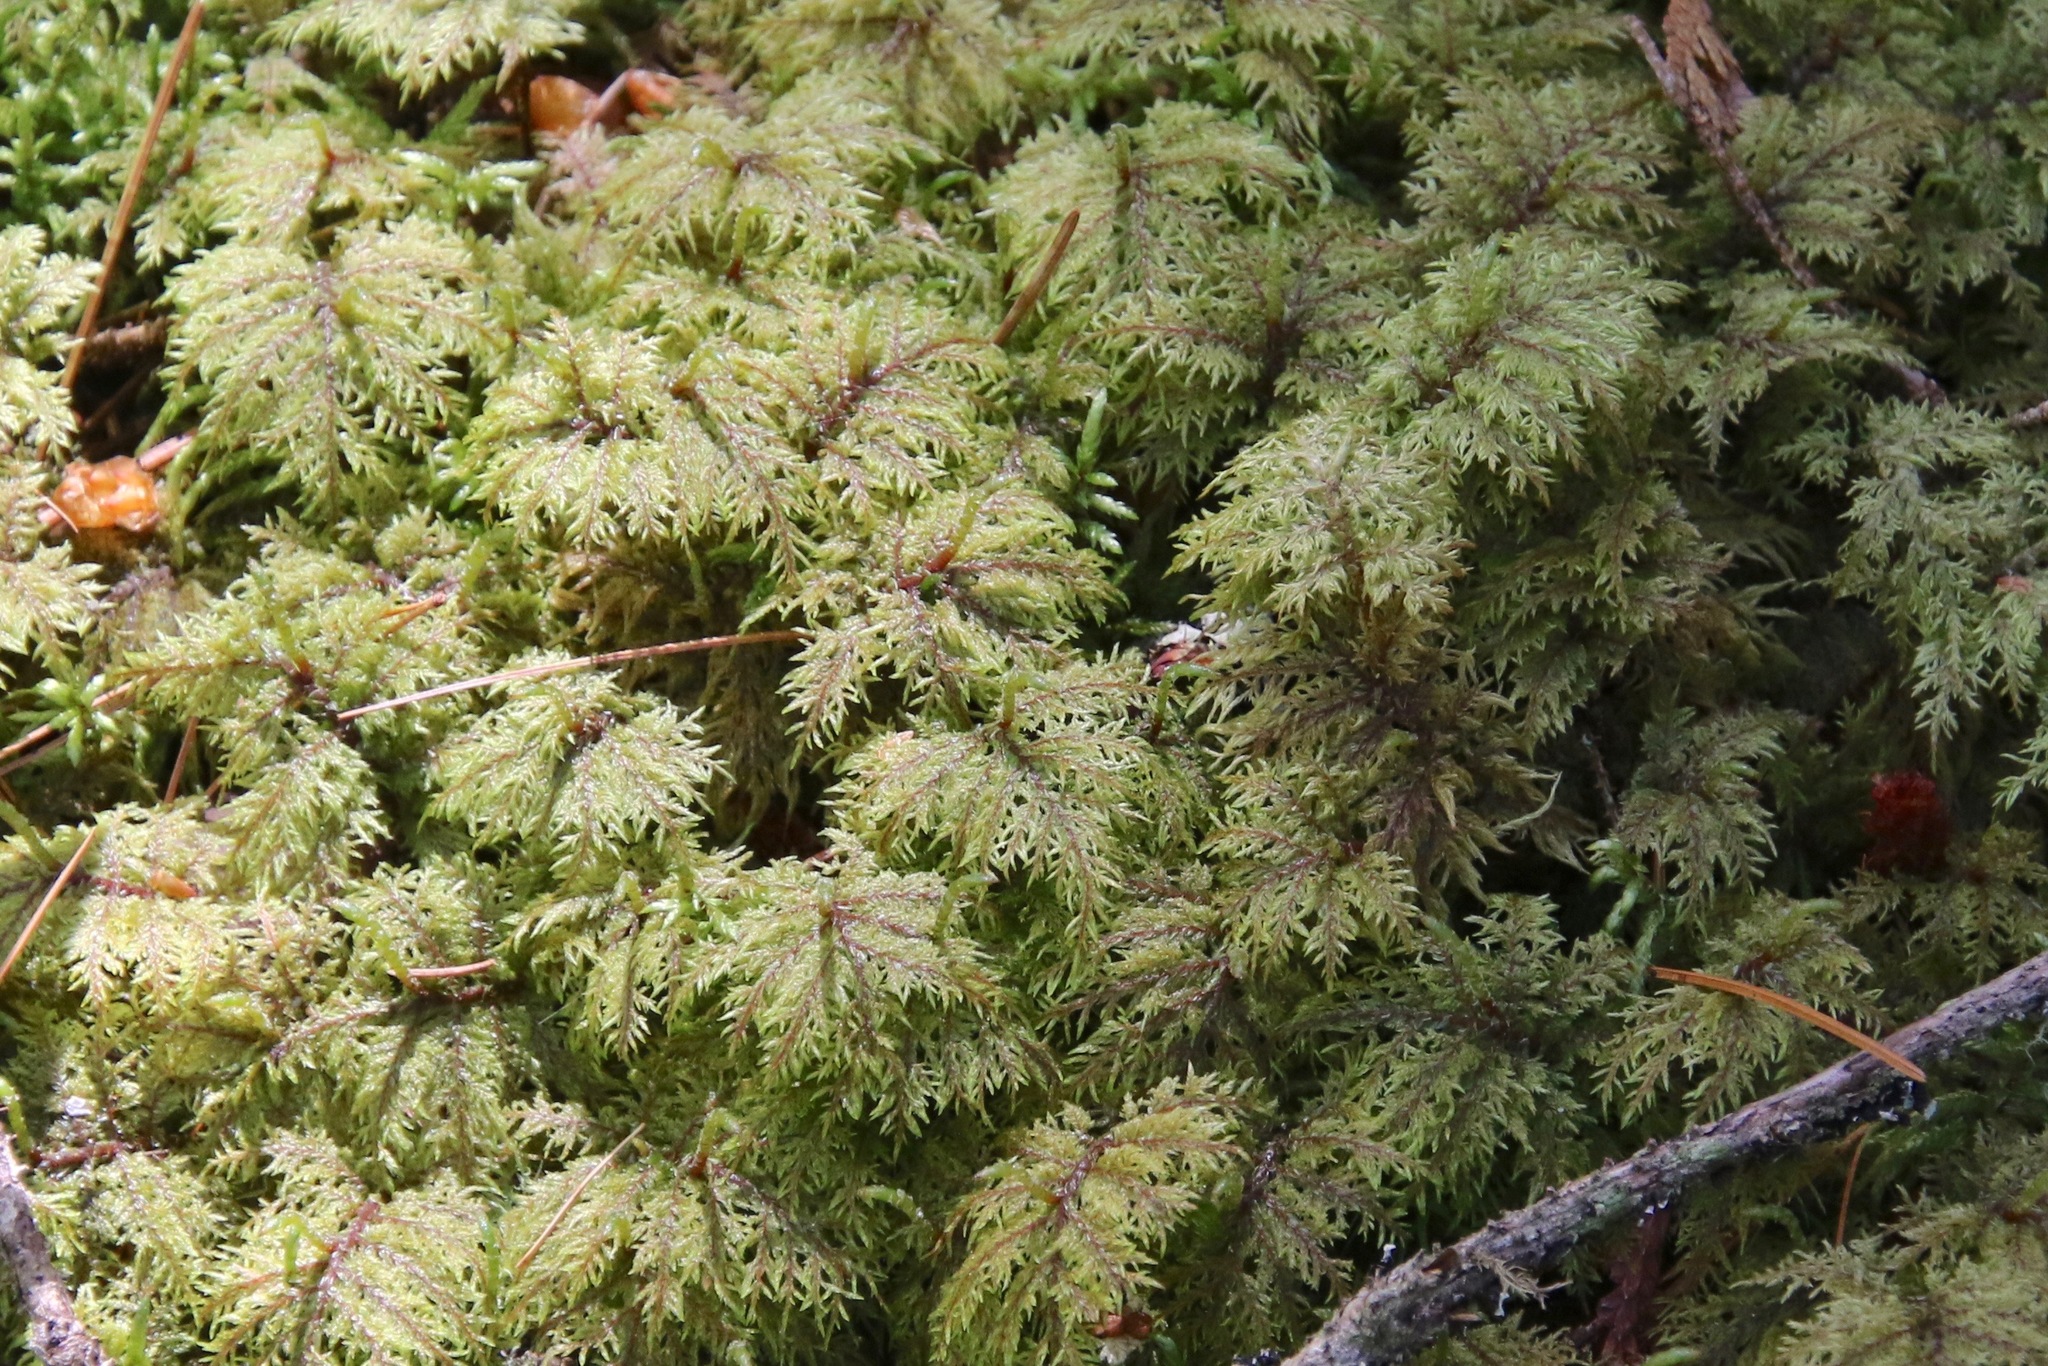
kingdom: Plantae
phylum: Bryophyta
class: Bryopsida
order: Hypnales
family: Hylocomiaceae
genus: Hylocomium
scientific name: Hylocomium splendens
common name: Stairstep moss
